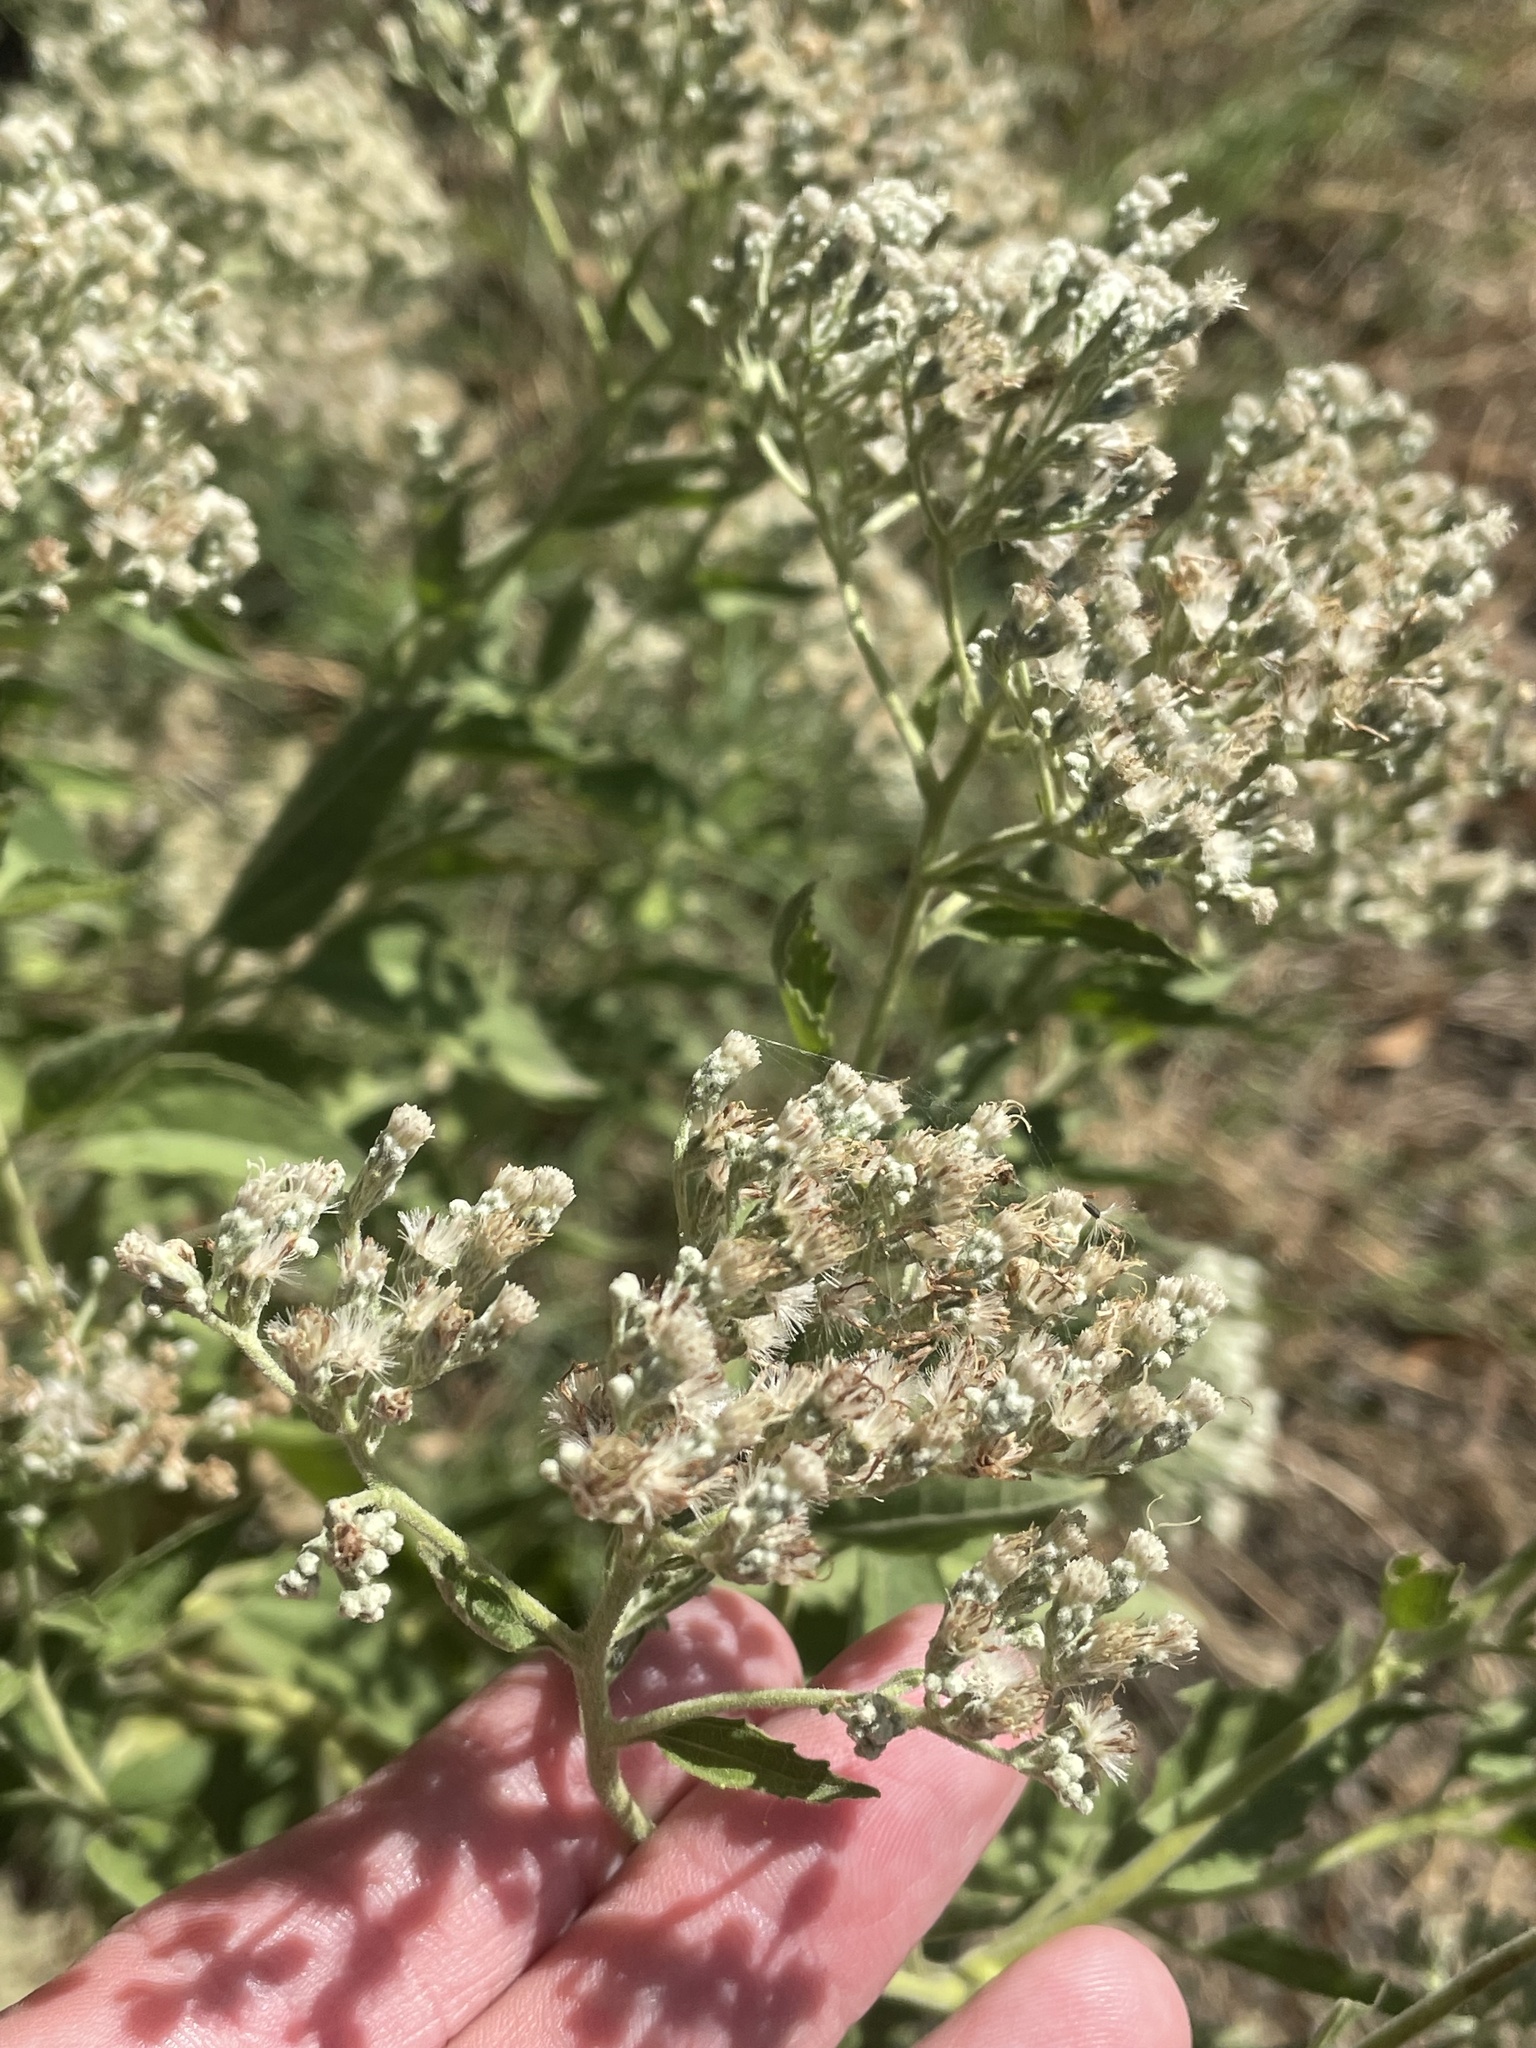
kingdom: Plantae
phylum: Tracheophyta
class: Magnoliopsida
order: Asterales
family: Asteraceae
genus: Eupatorium
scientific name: Eupatorium serotinum
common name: Late boneset
